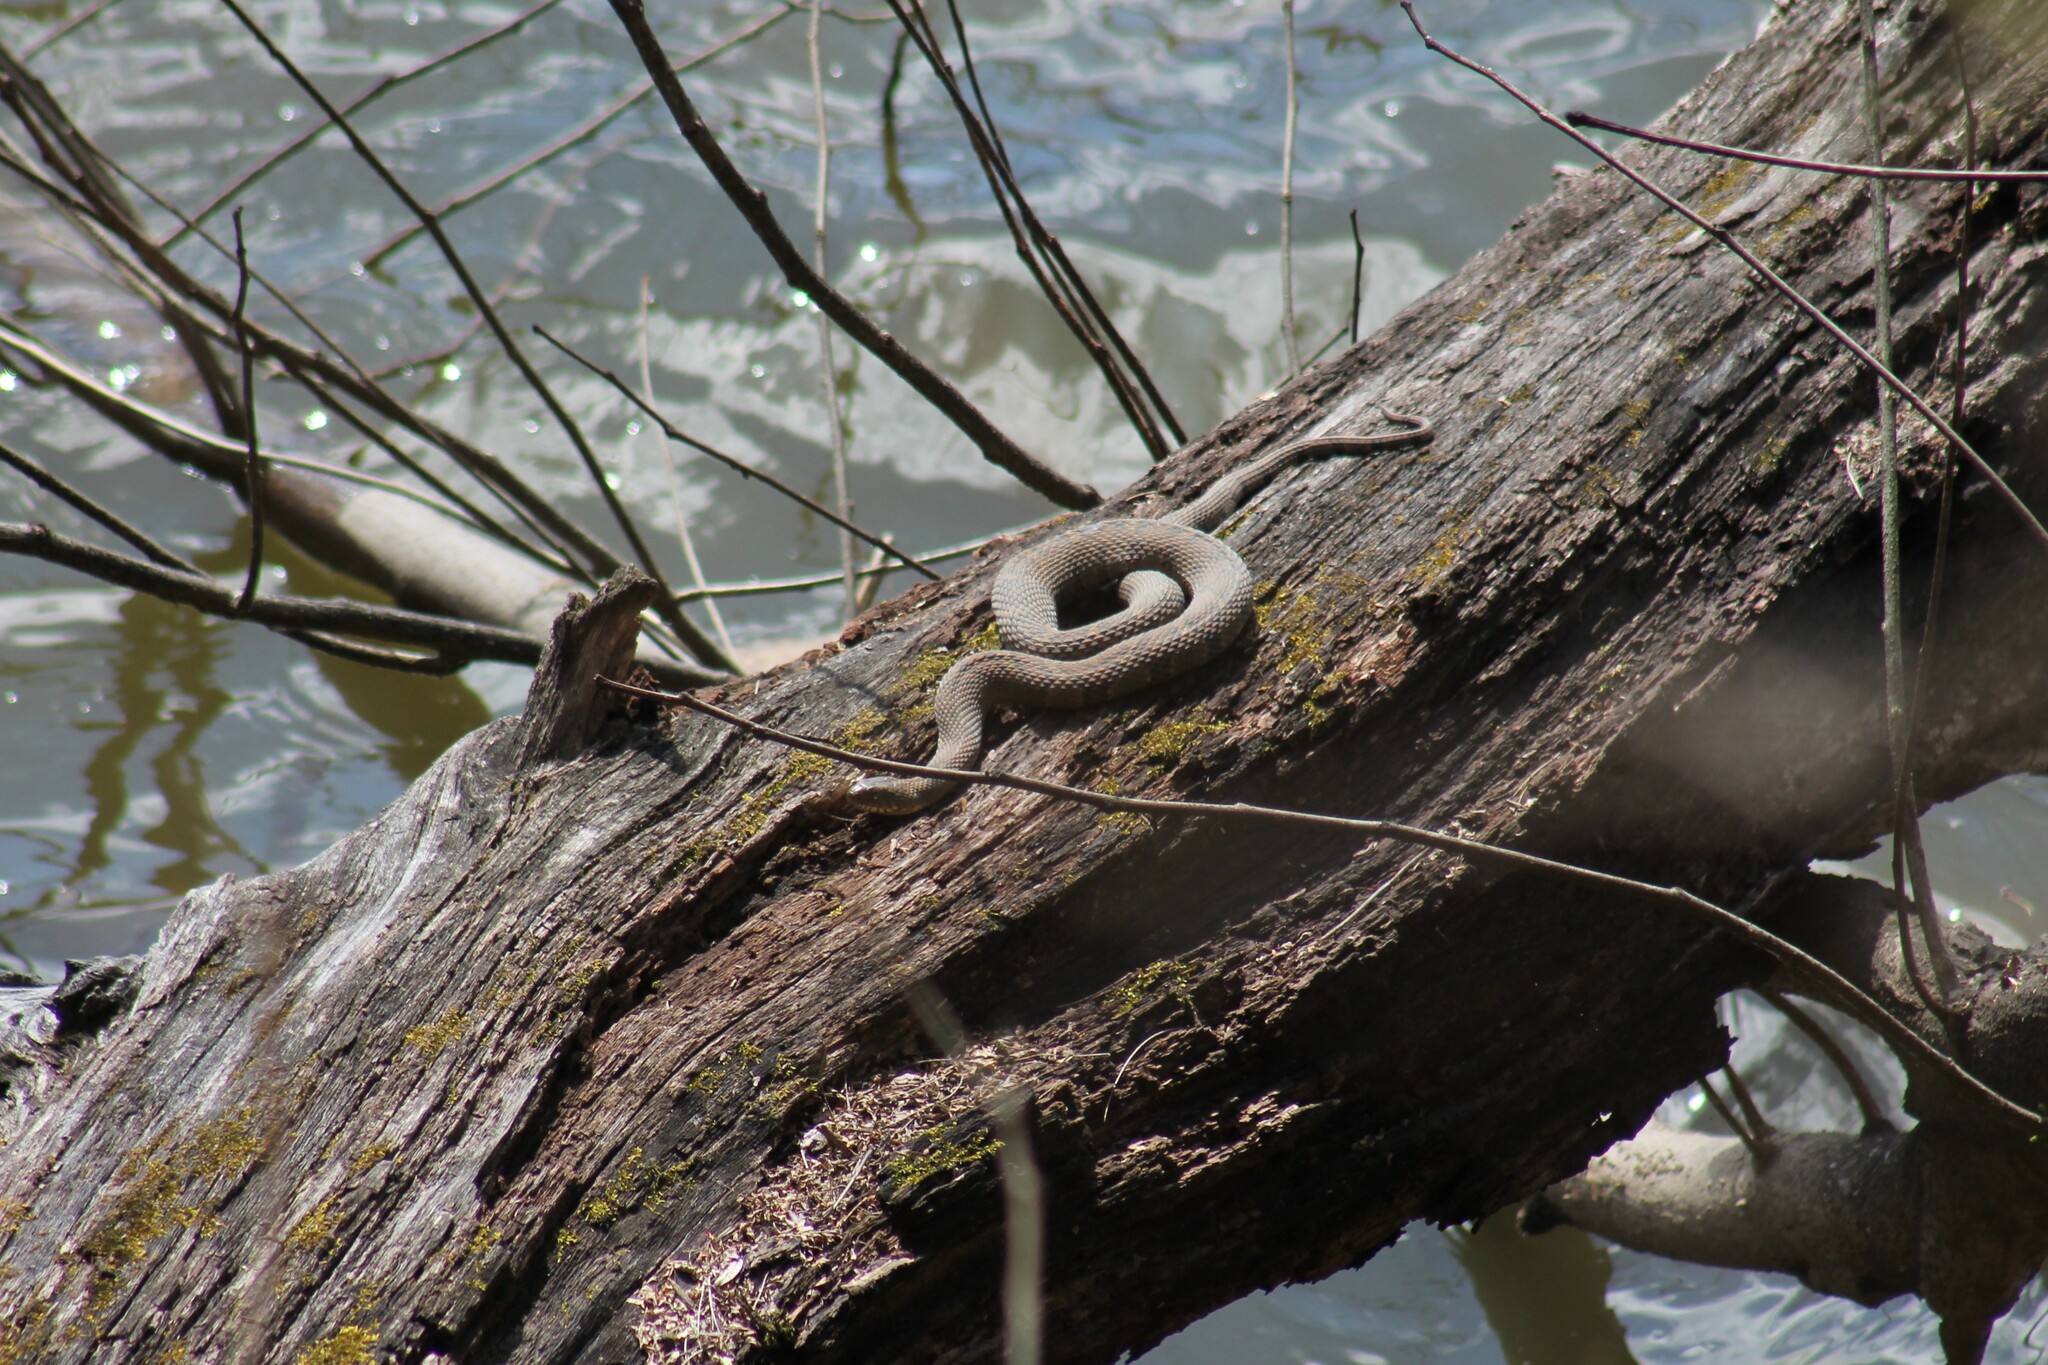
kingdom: Animalia
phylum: Chordata
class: Squamata
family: Colubridae
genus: Nerodia
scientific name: Nerodia sipedon
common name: Northern water snake
